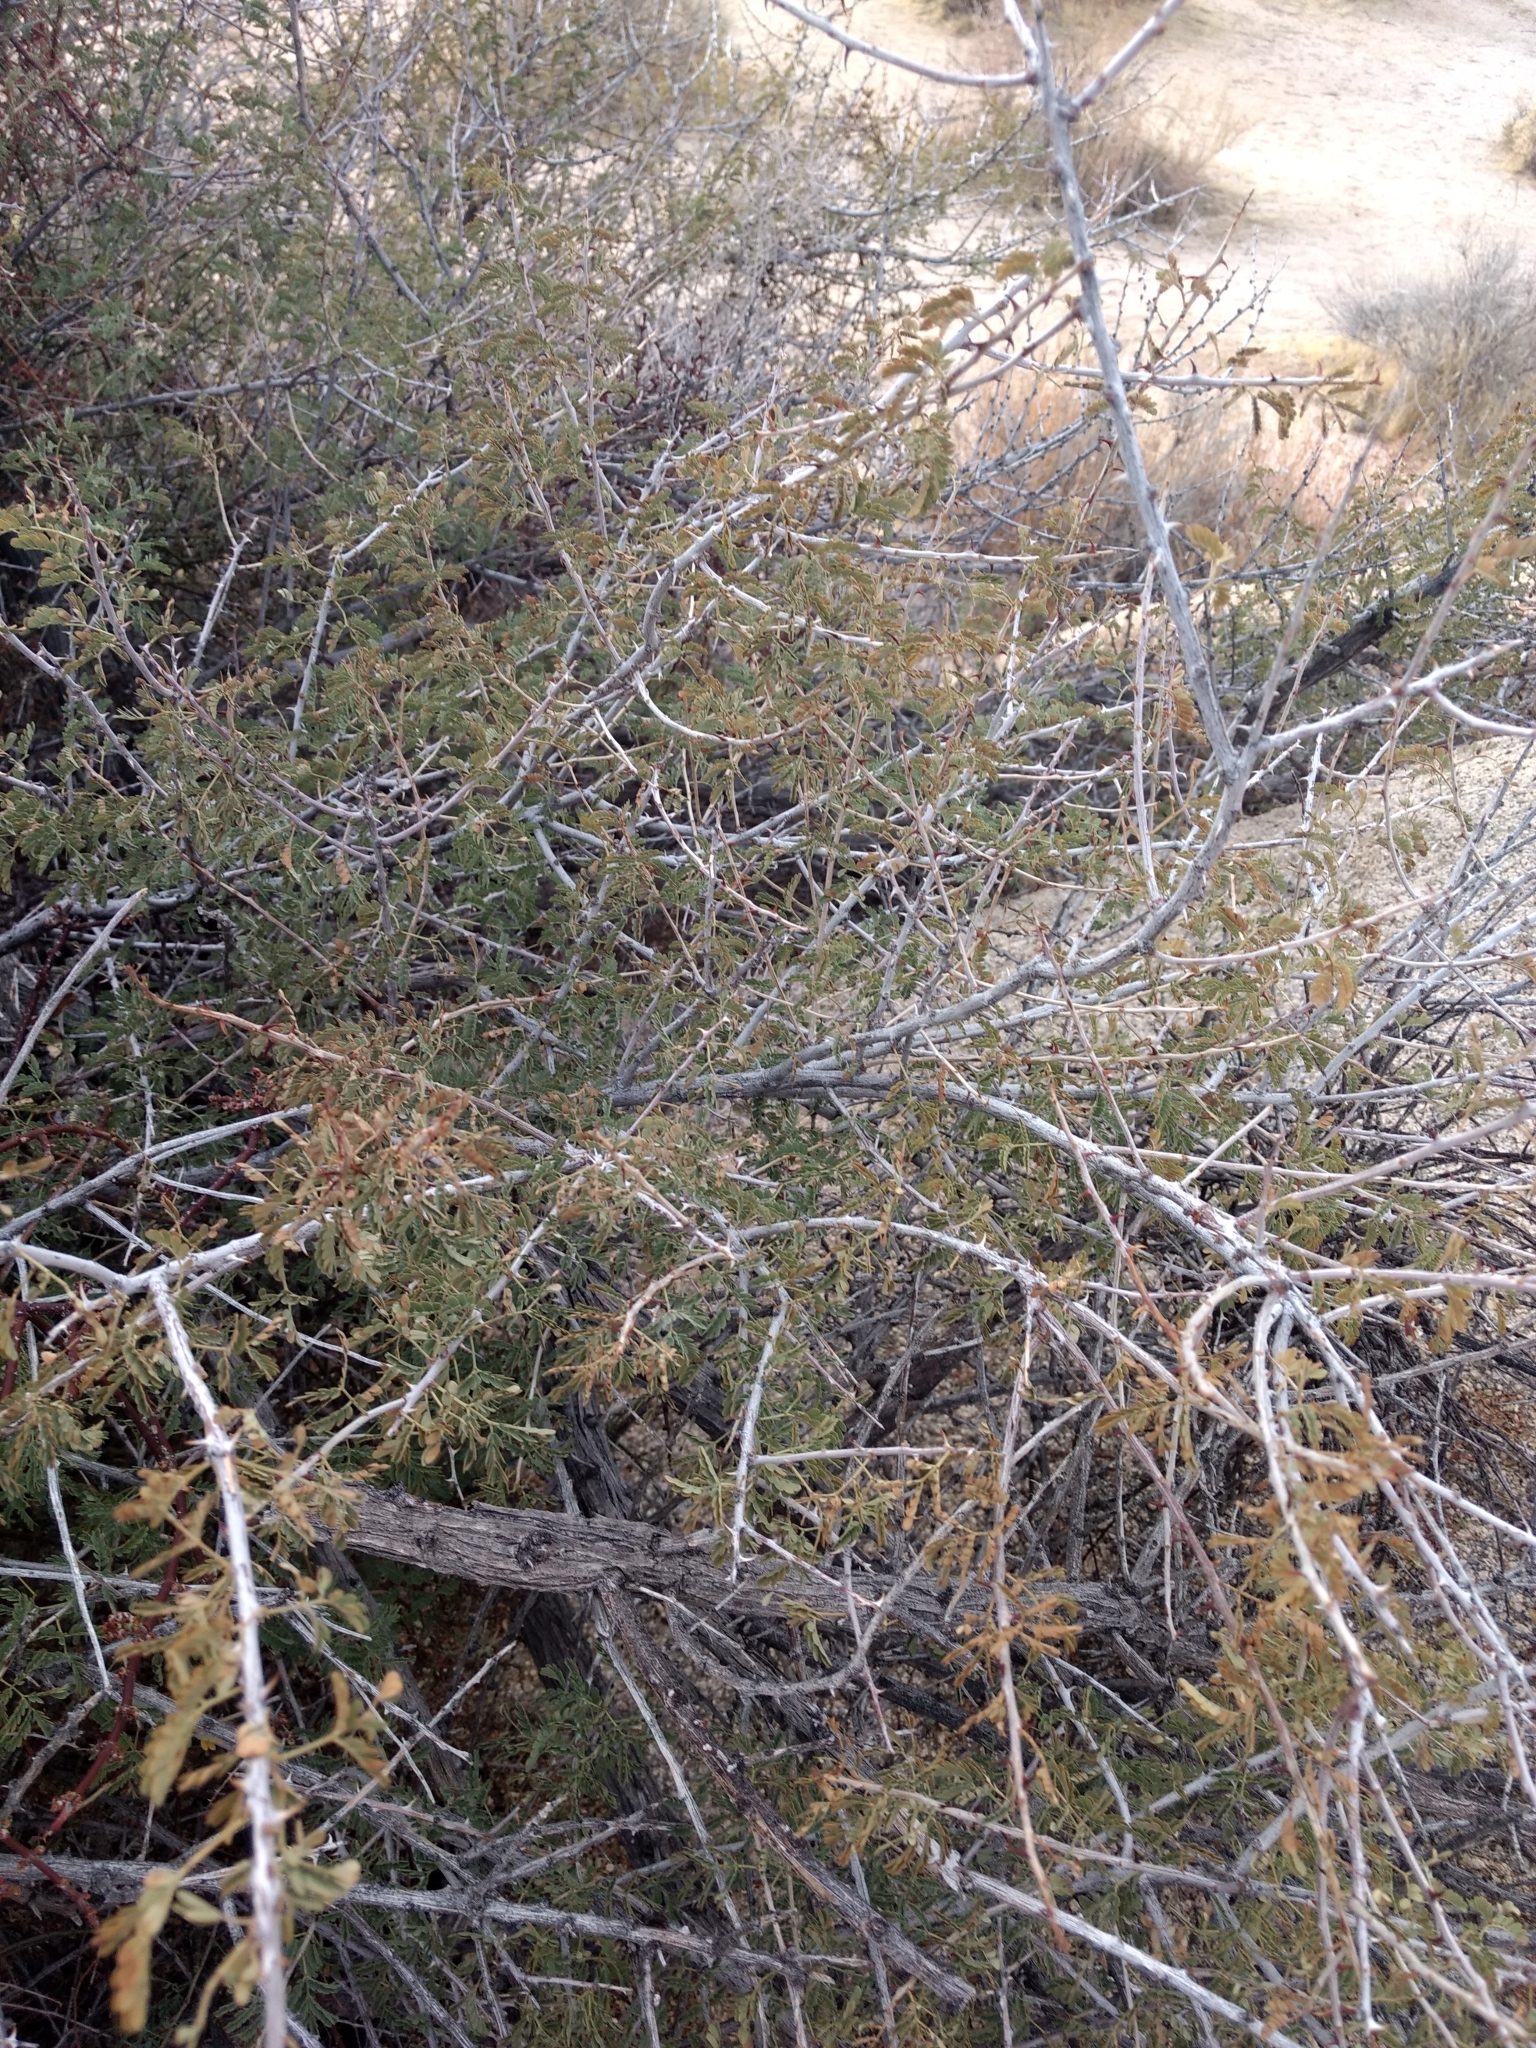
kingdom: Plantae
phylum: Tracheophyta
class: Magnoliopsida
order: Fabales
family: Fabaceae
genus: Senegalia
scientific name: Senegalia greggii
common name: Texas-mimosa
